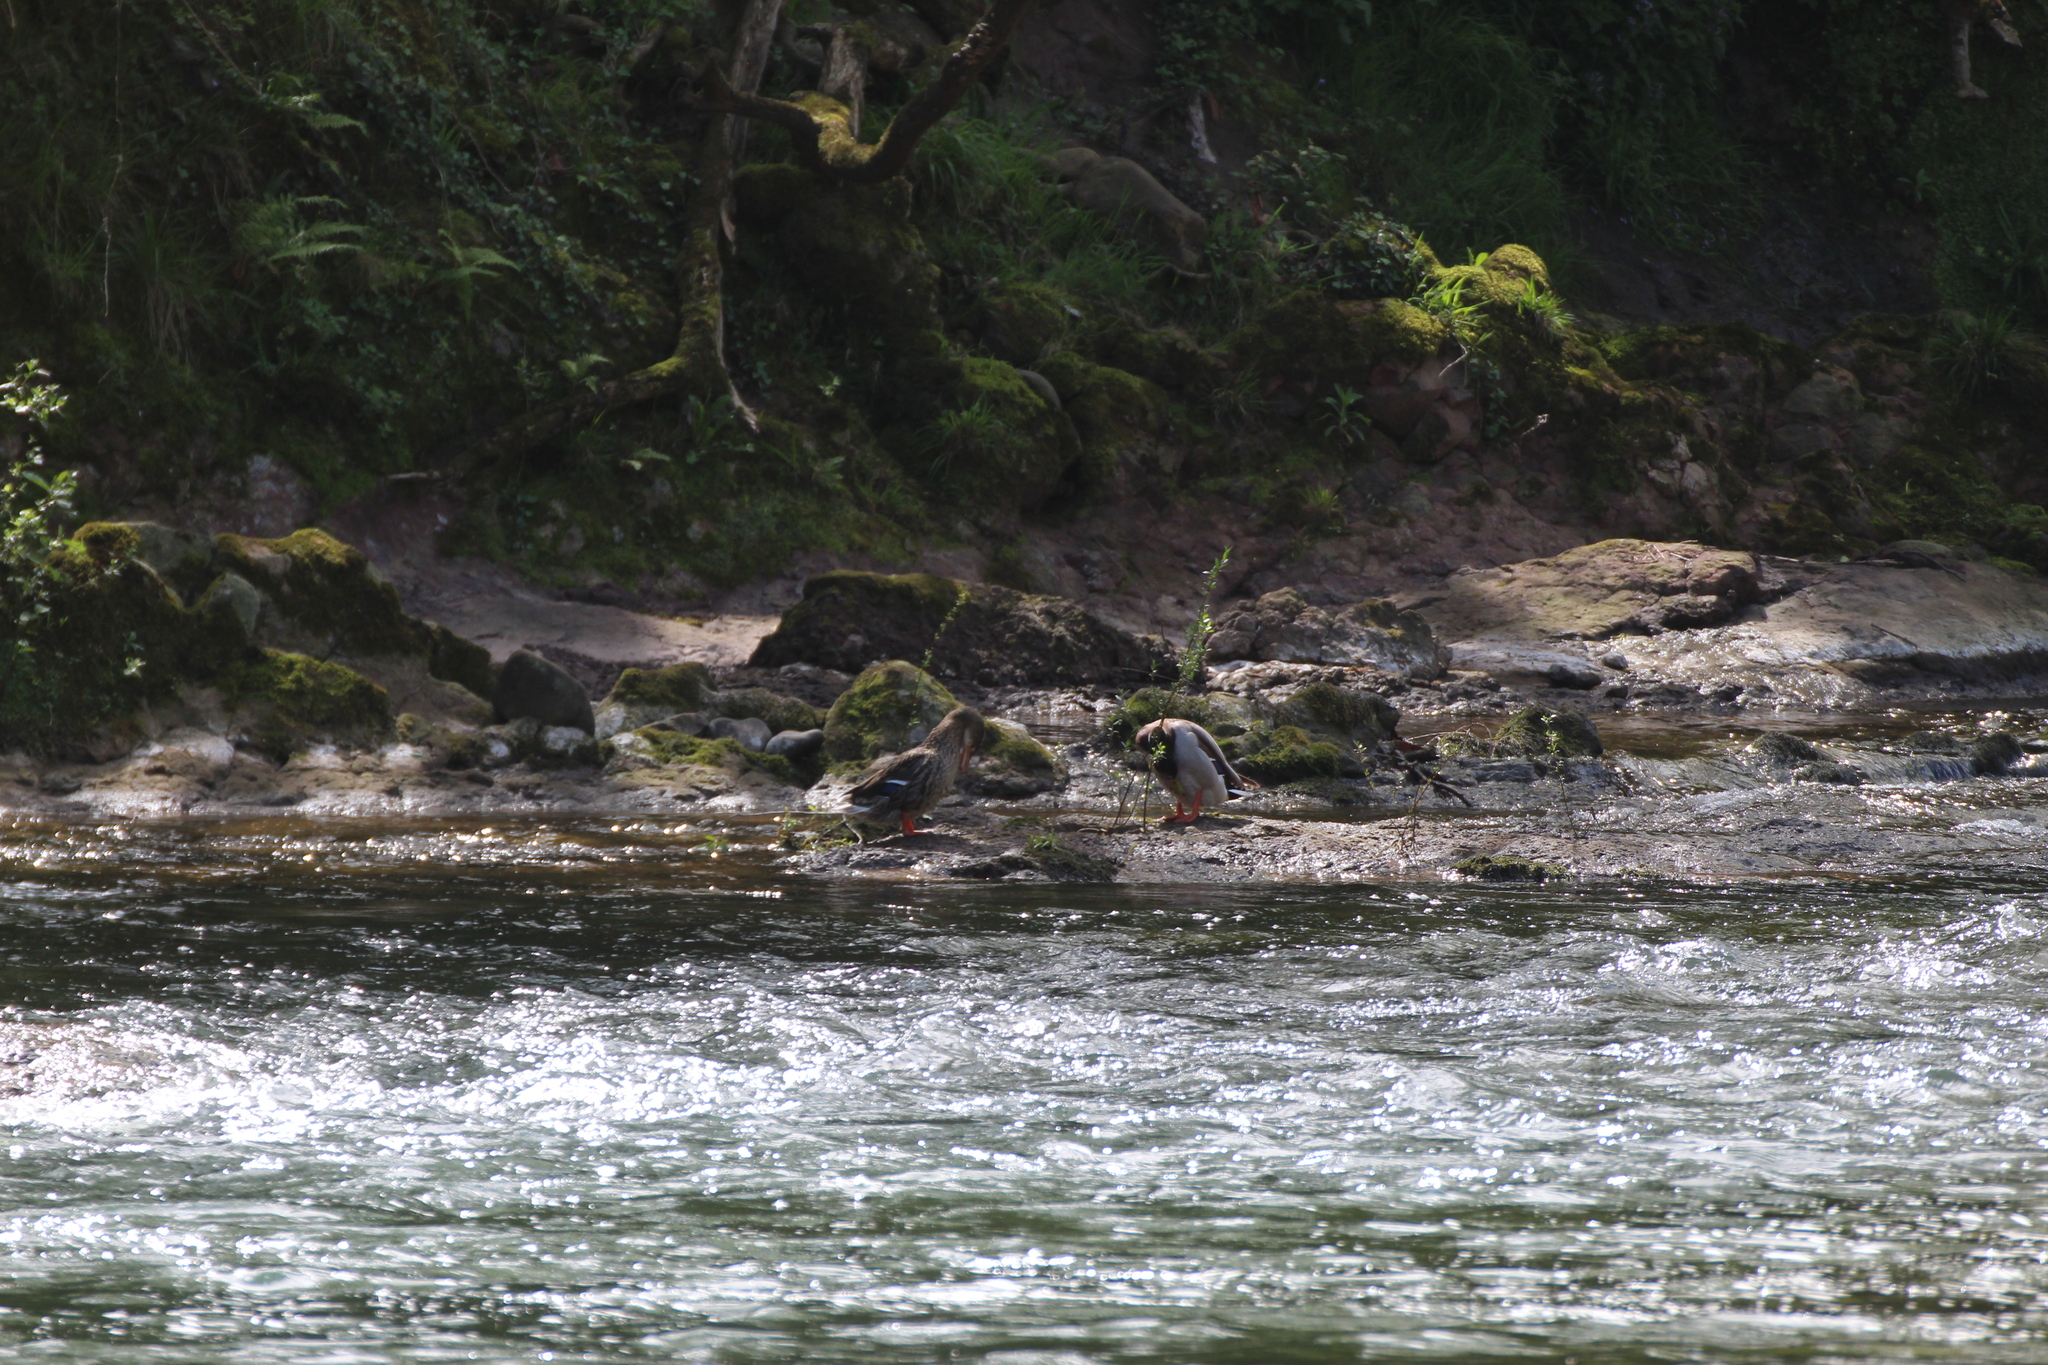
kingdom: Animalia
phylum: Chordata
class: Aves
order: Anseriformes
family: Anatidae
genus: Anas
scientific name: Anas platyrhynchos
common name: Mallard
